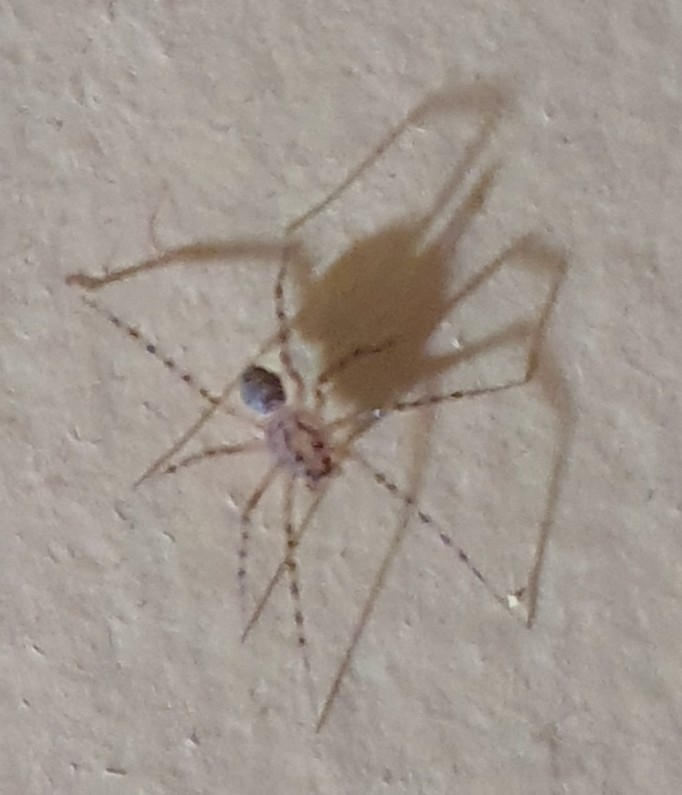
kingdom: Animalia
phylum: Arthropoda
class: Arachnida
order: Araneae
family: Scytodidae
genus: Scytodes
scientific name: Scytodes thoracica
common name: Spitting spider
